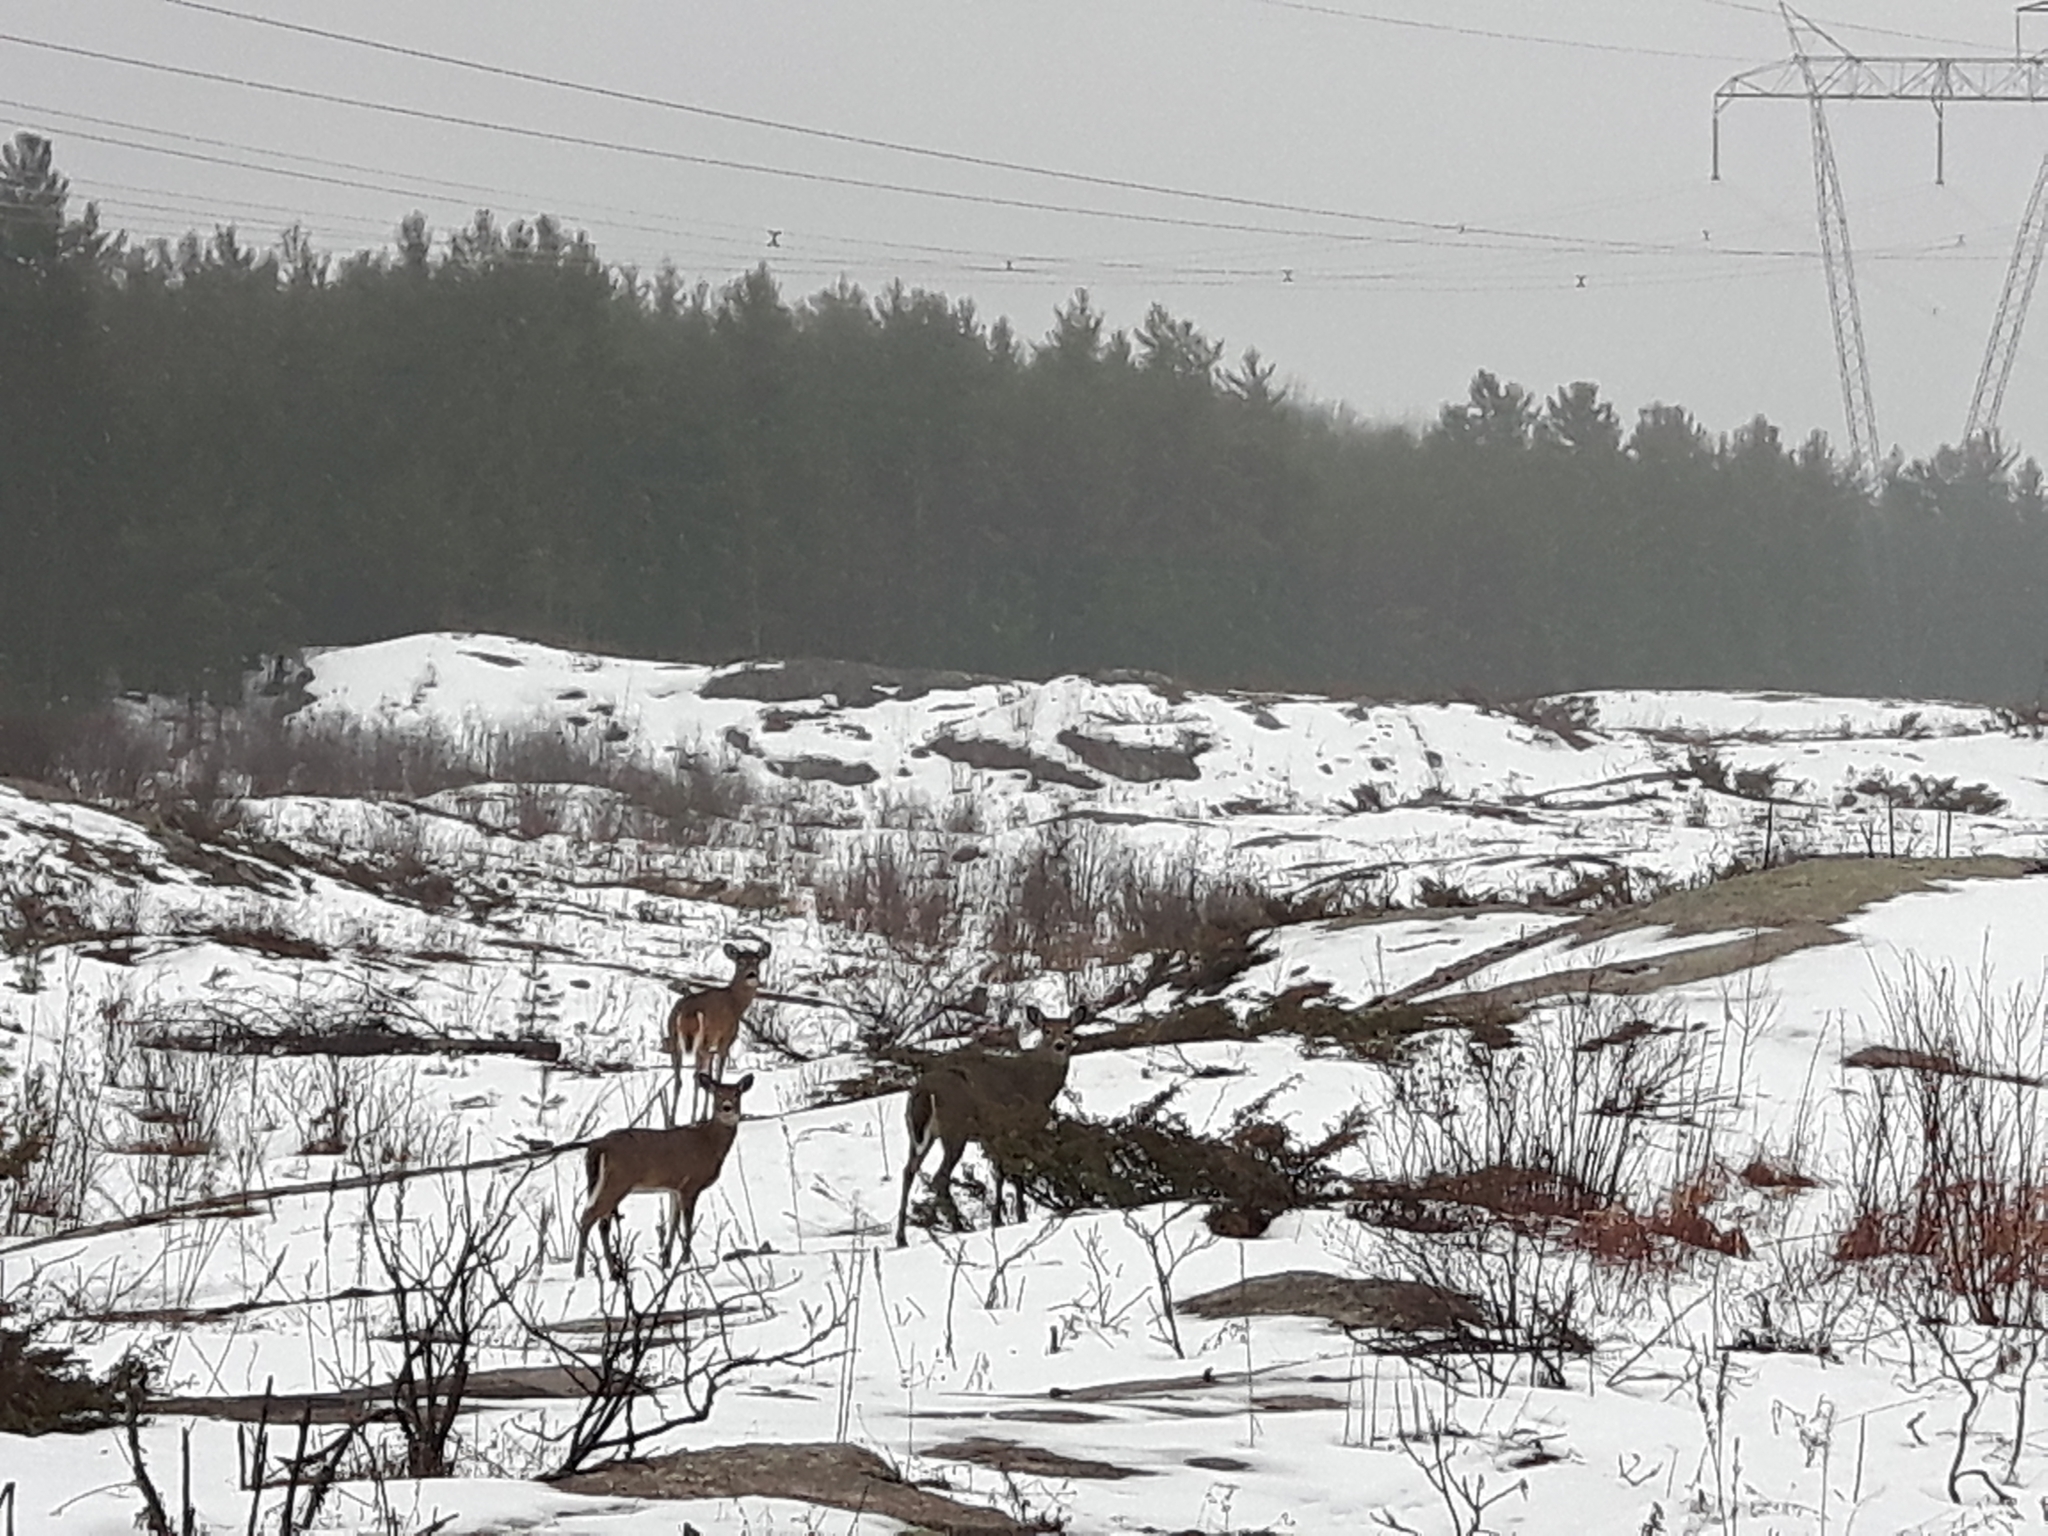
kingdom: Animalia
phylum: Chordata
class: Mammalia
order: Artiodactyla
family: Cervidae
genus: Odocoileus
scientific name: Odocoileus virginianus
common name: White-tailed deer
